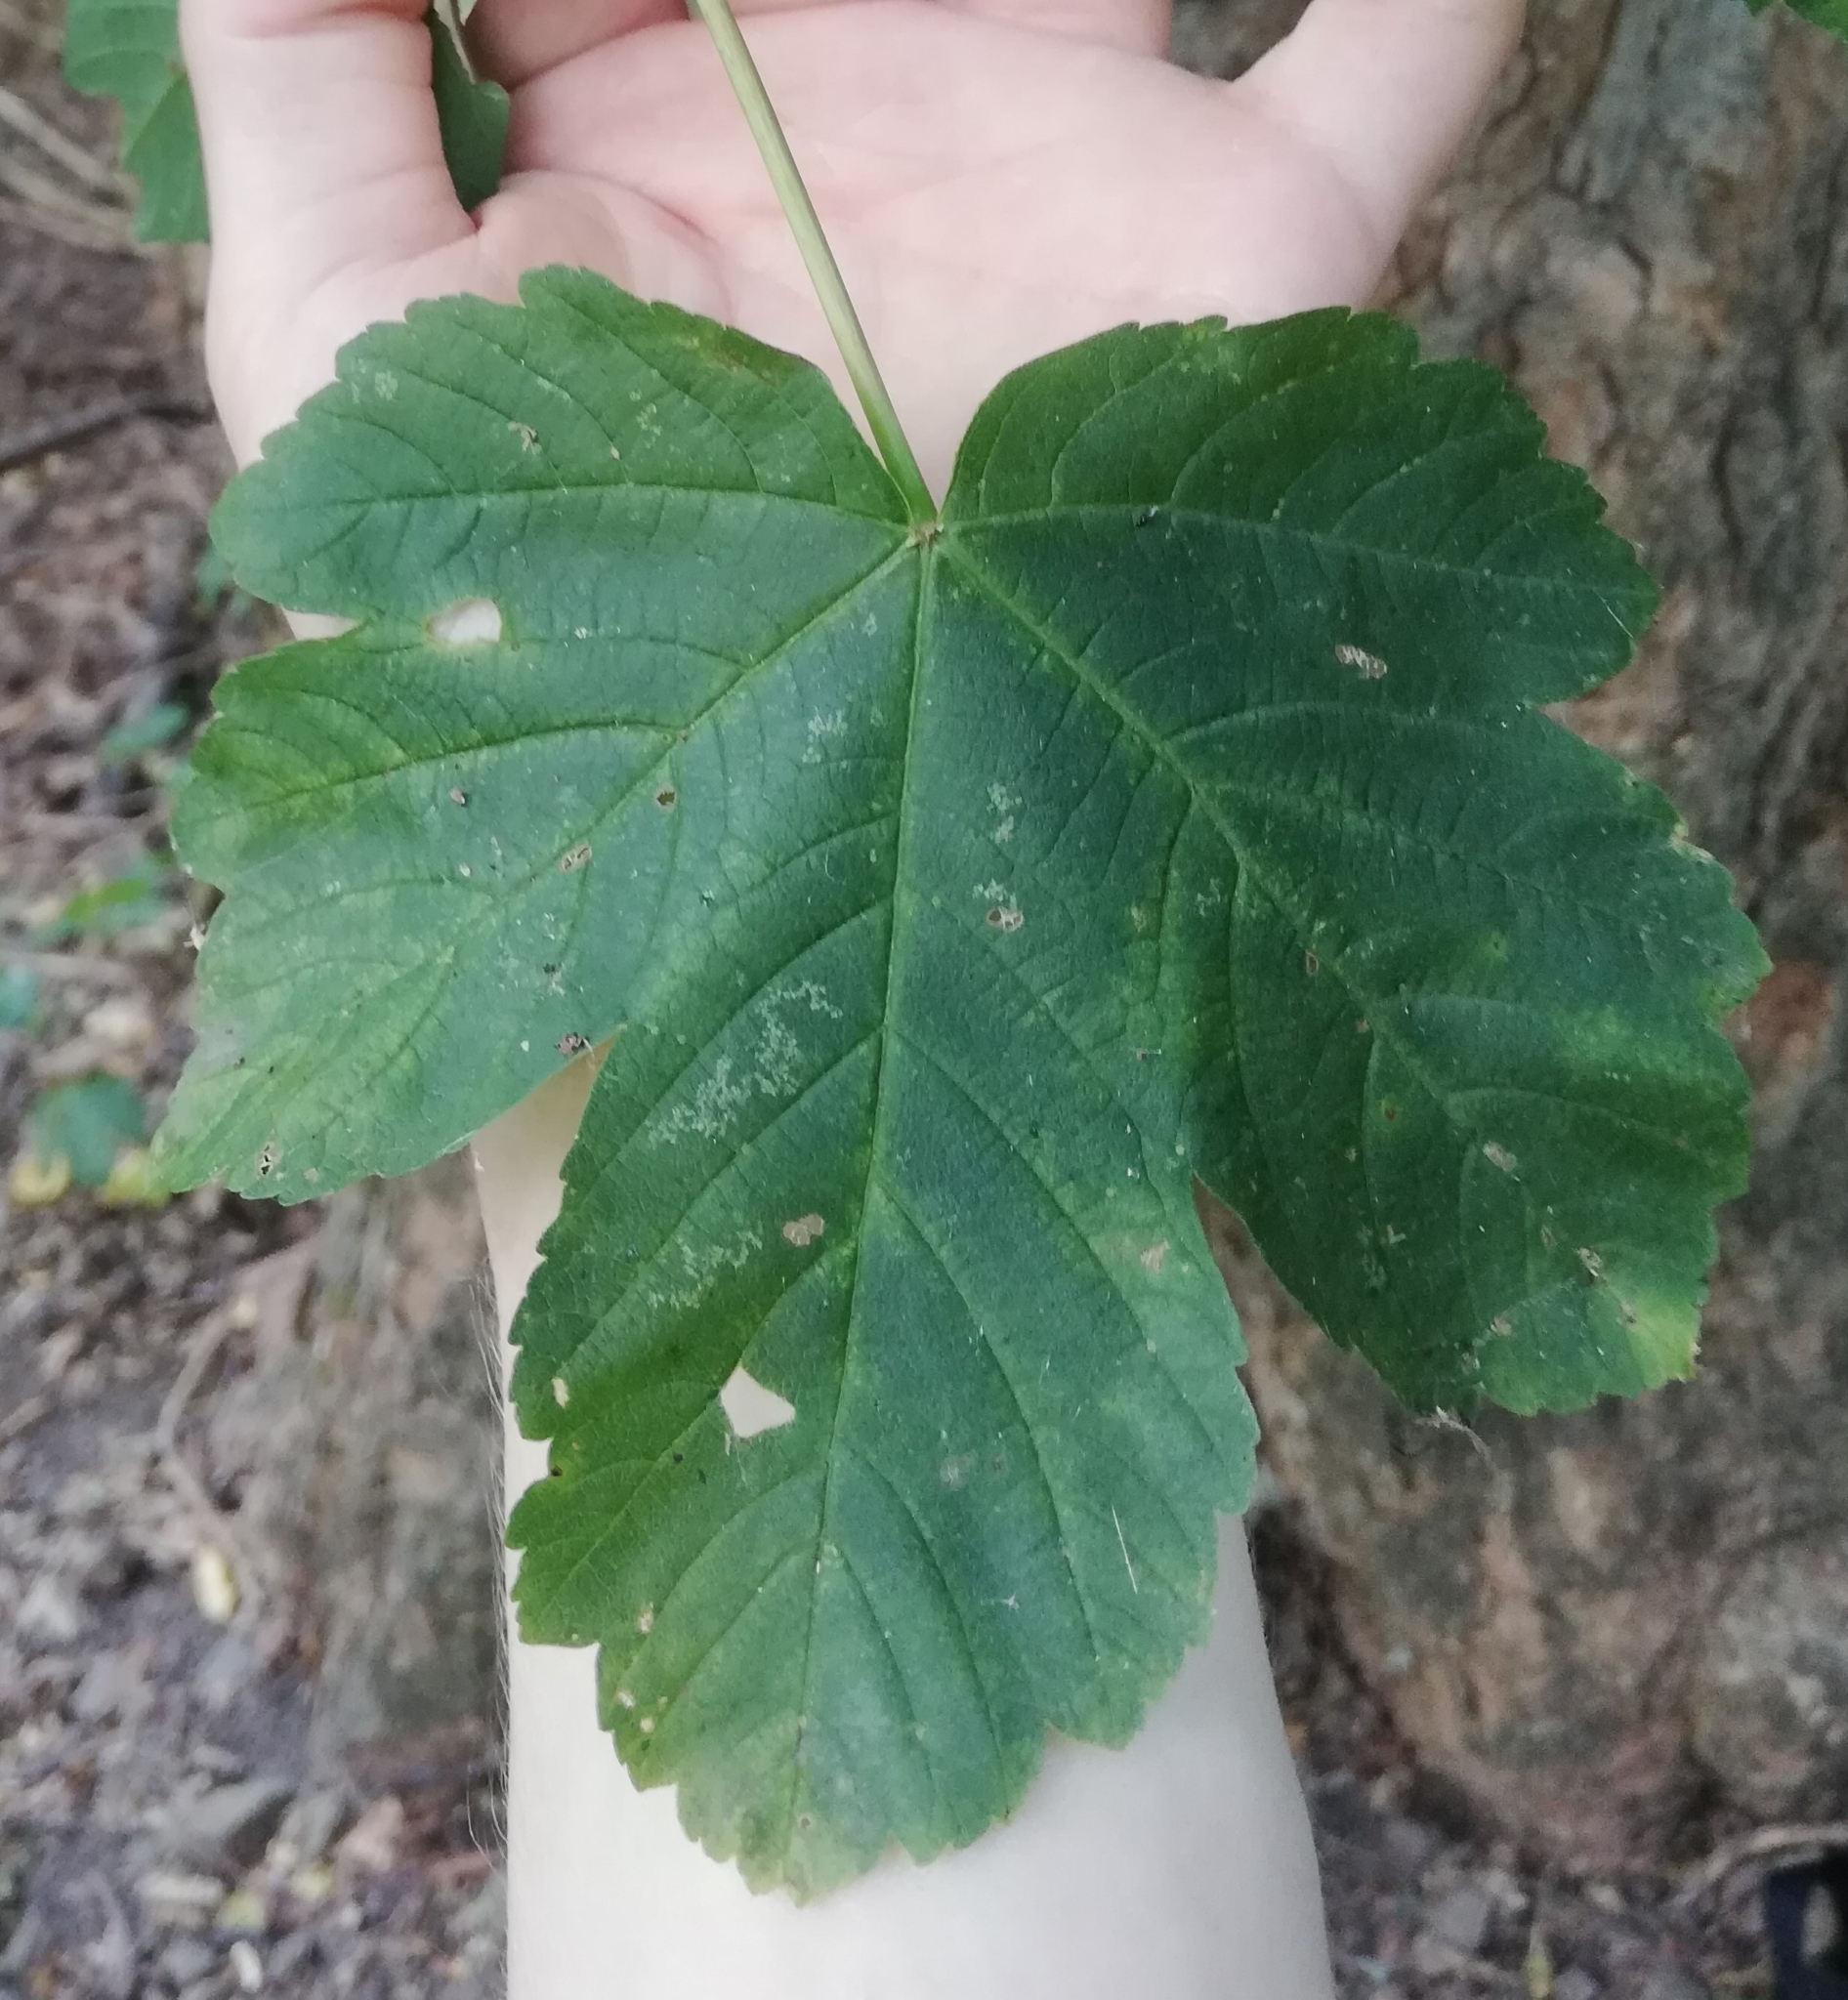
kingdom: Plantae
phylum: Tracheophyta
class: Magnoliopsida
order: Sapindales
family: Sapindaceae
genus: Acer
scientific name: Acer pseudoplatanus
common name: Sycamore
